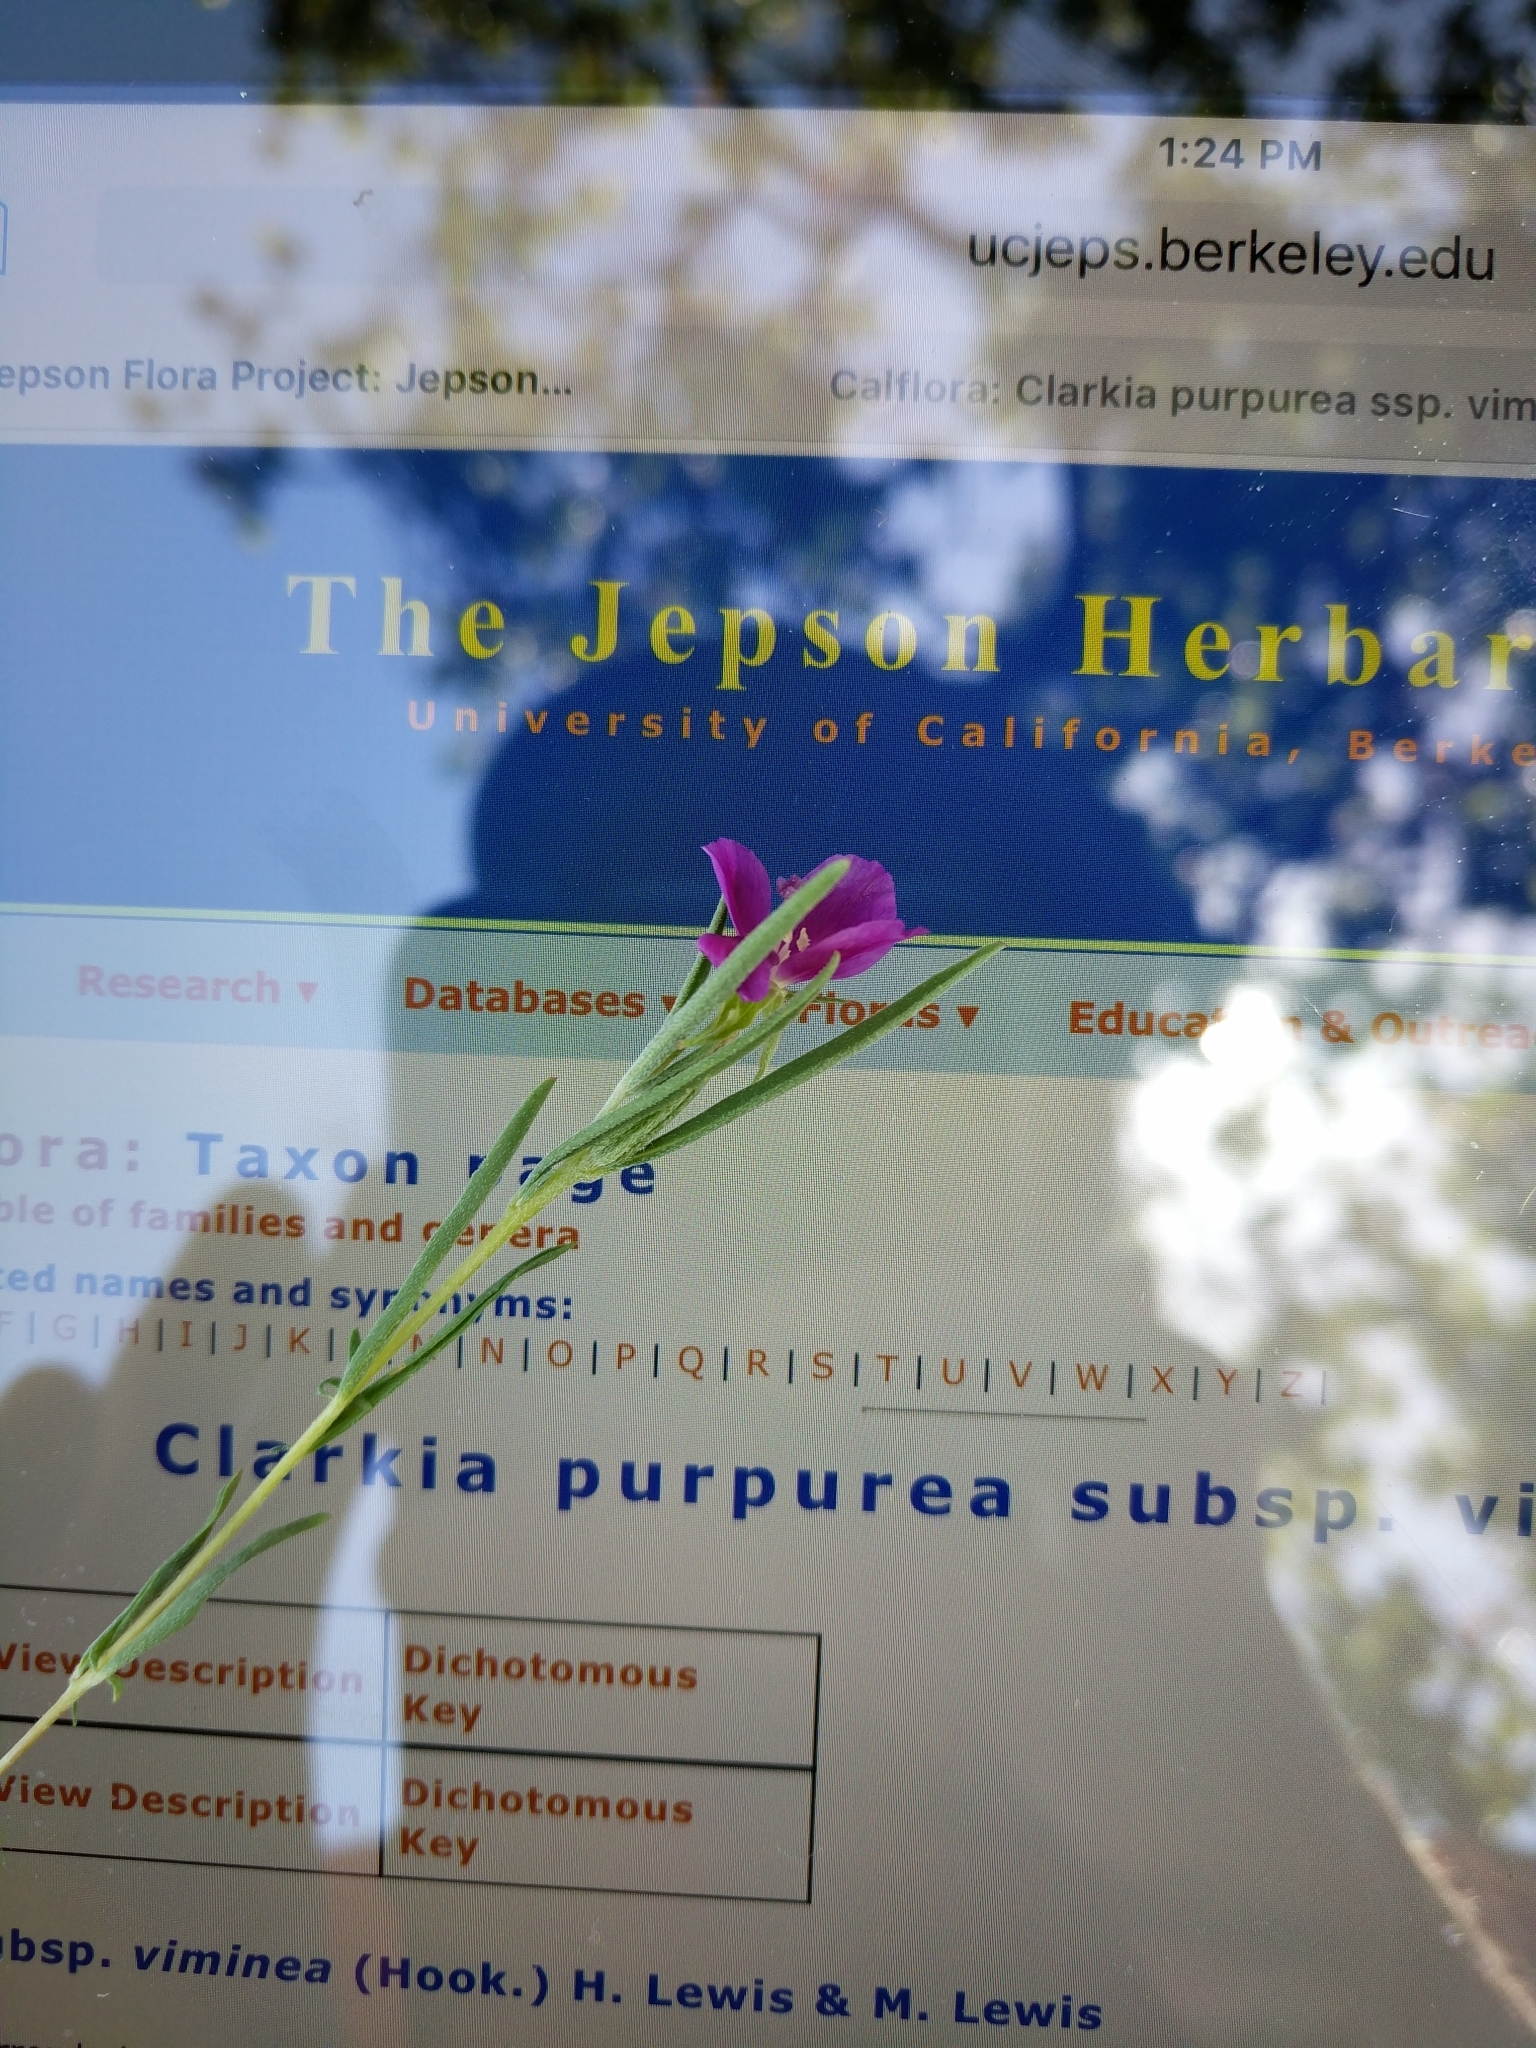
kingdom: Plantae
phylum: Tracheophyta
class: Magnoliopsida
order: Myrtales
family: Onagraceae
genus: Clarkia
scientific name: Clarkia purpurea
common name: Purple clarkia
